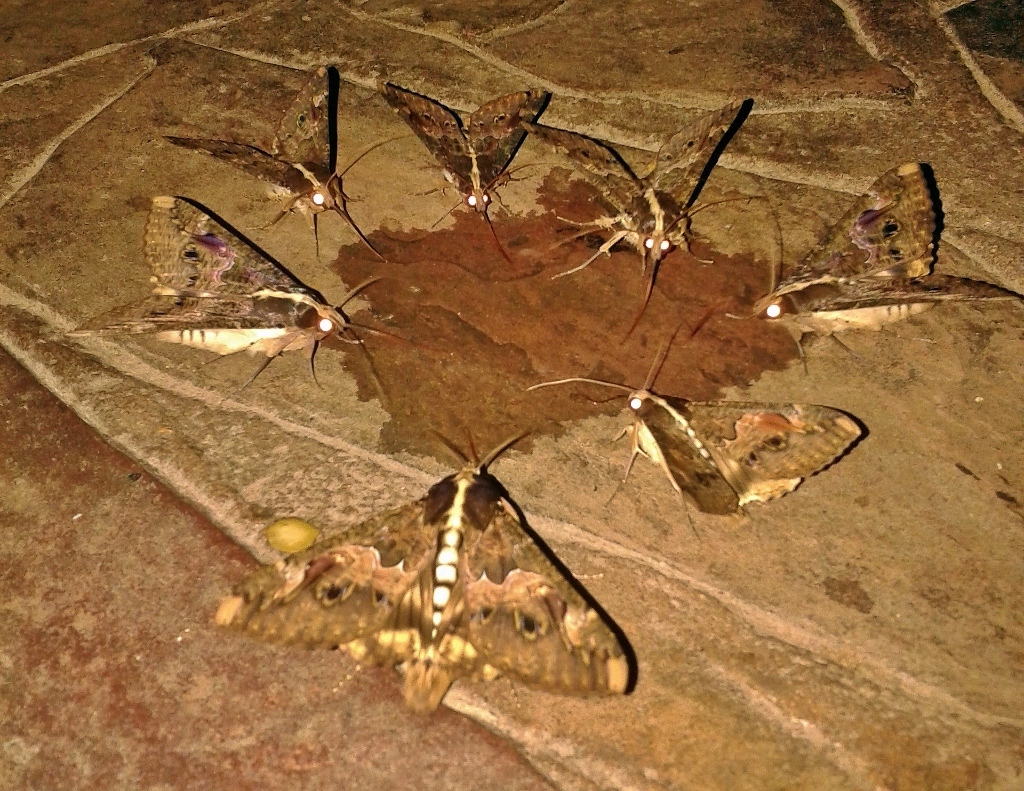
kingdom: Animalia
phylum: Arthropoda
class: Insecta
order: Lepidoptera
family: Erebidae
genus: Sphingomorpha
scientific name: Sphingomorpha chlorea
